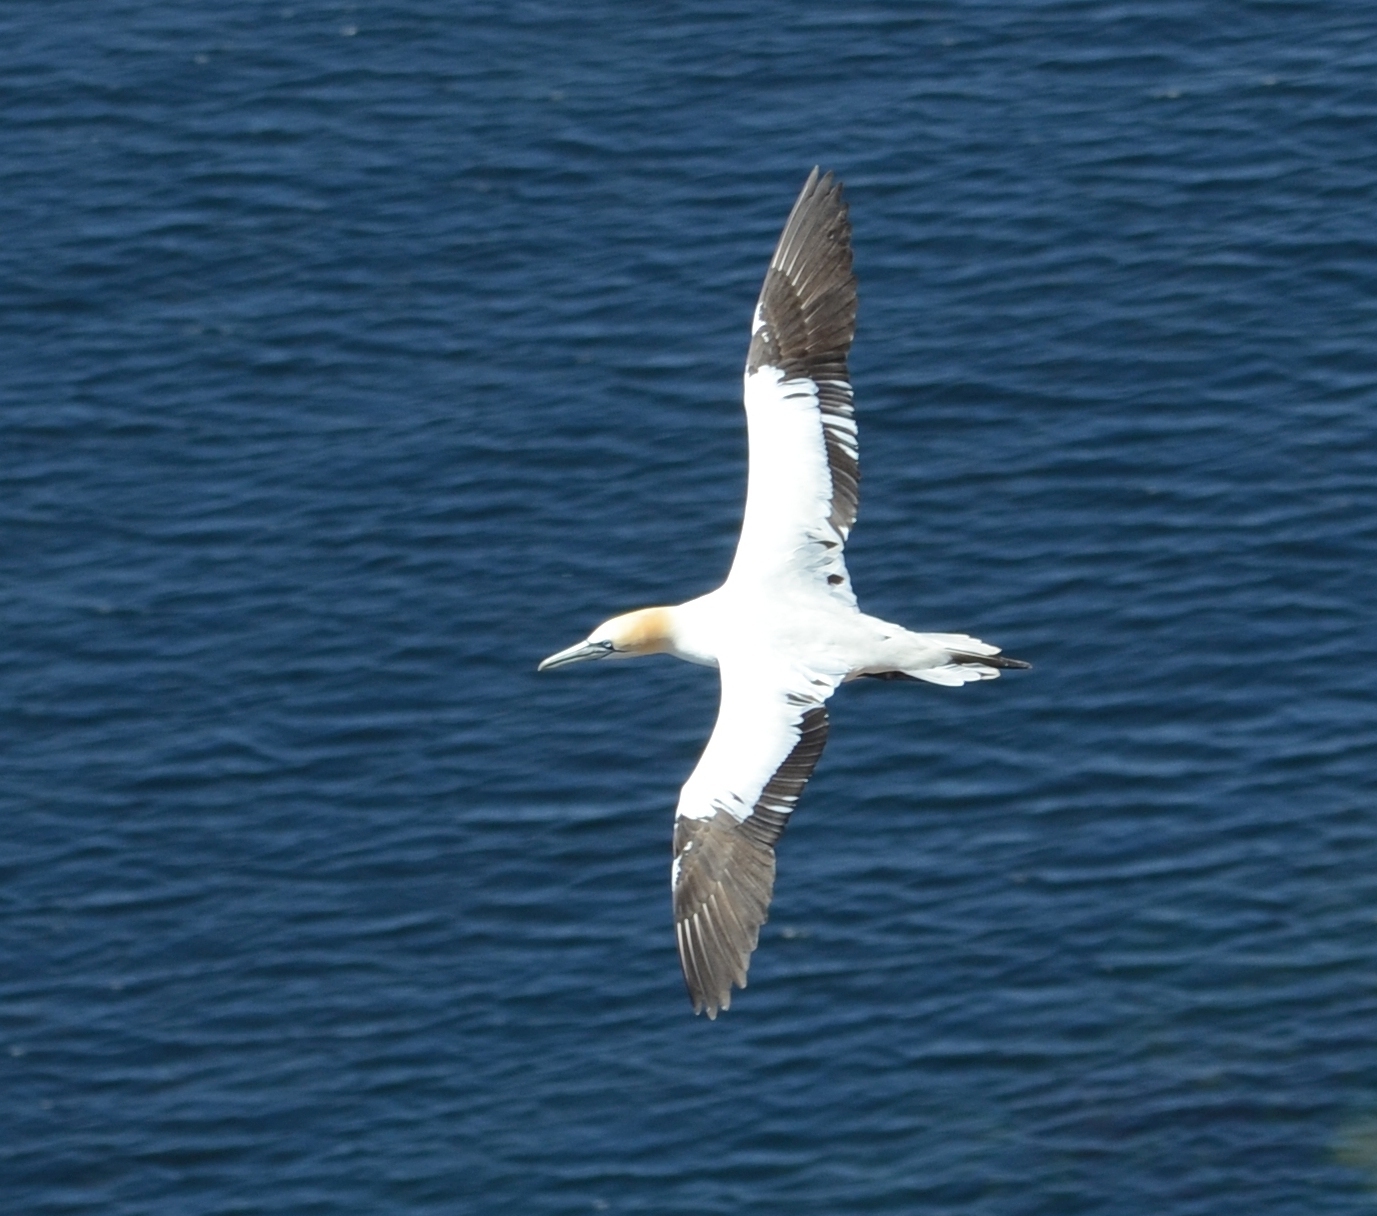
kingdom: Animalia
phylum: Chordata
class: Aves
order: Suliformes
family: Sulidae
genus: Morus
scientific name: Morus bassanus
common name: Northern gannet
